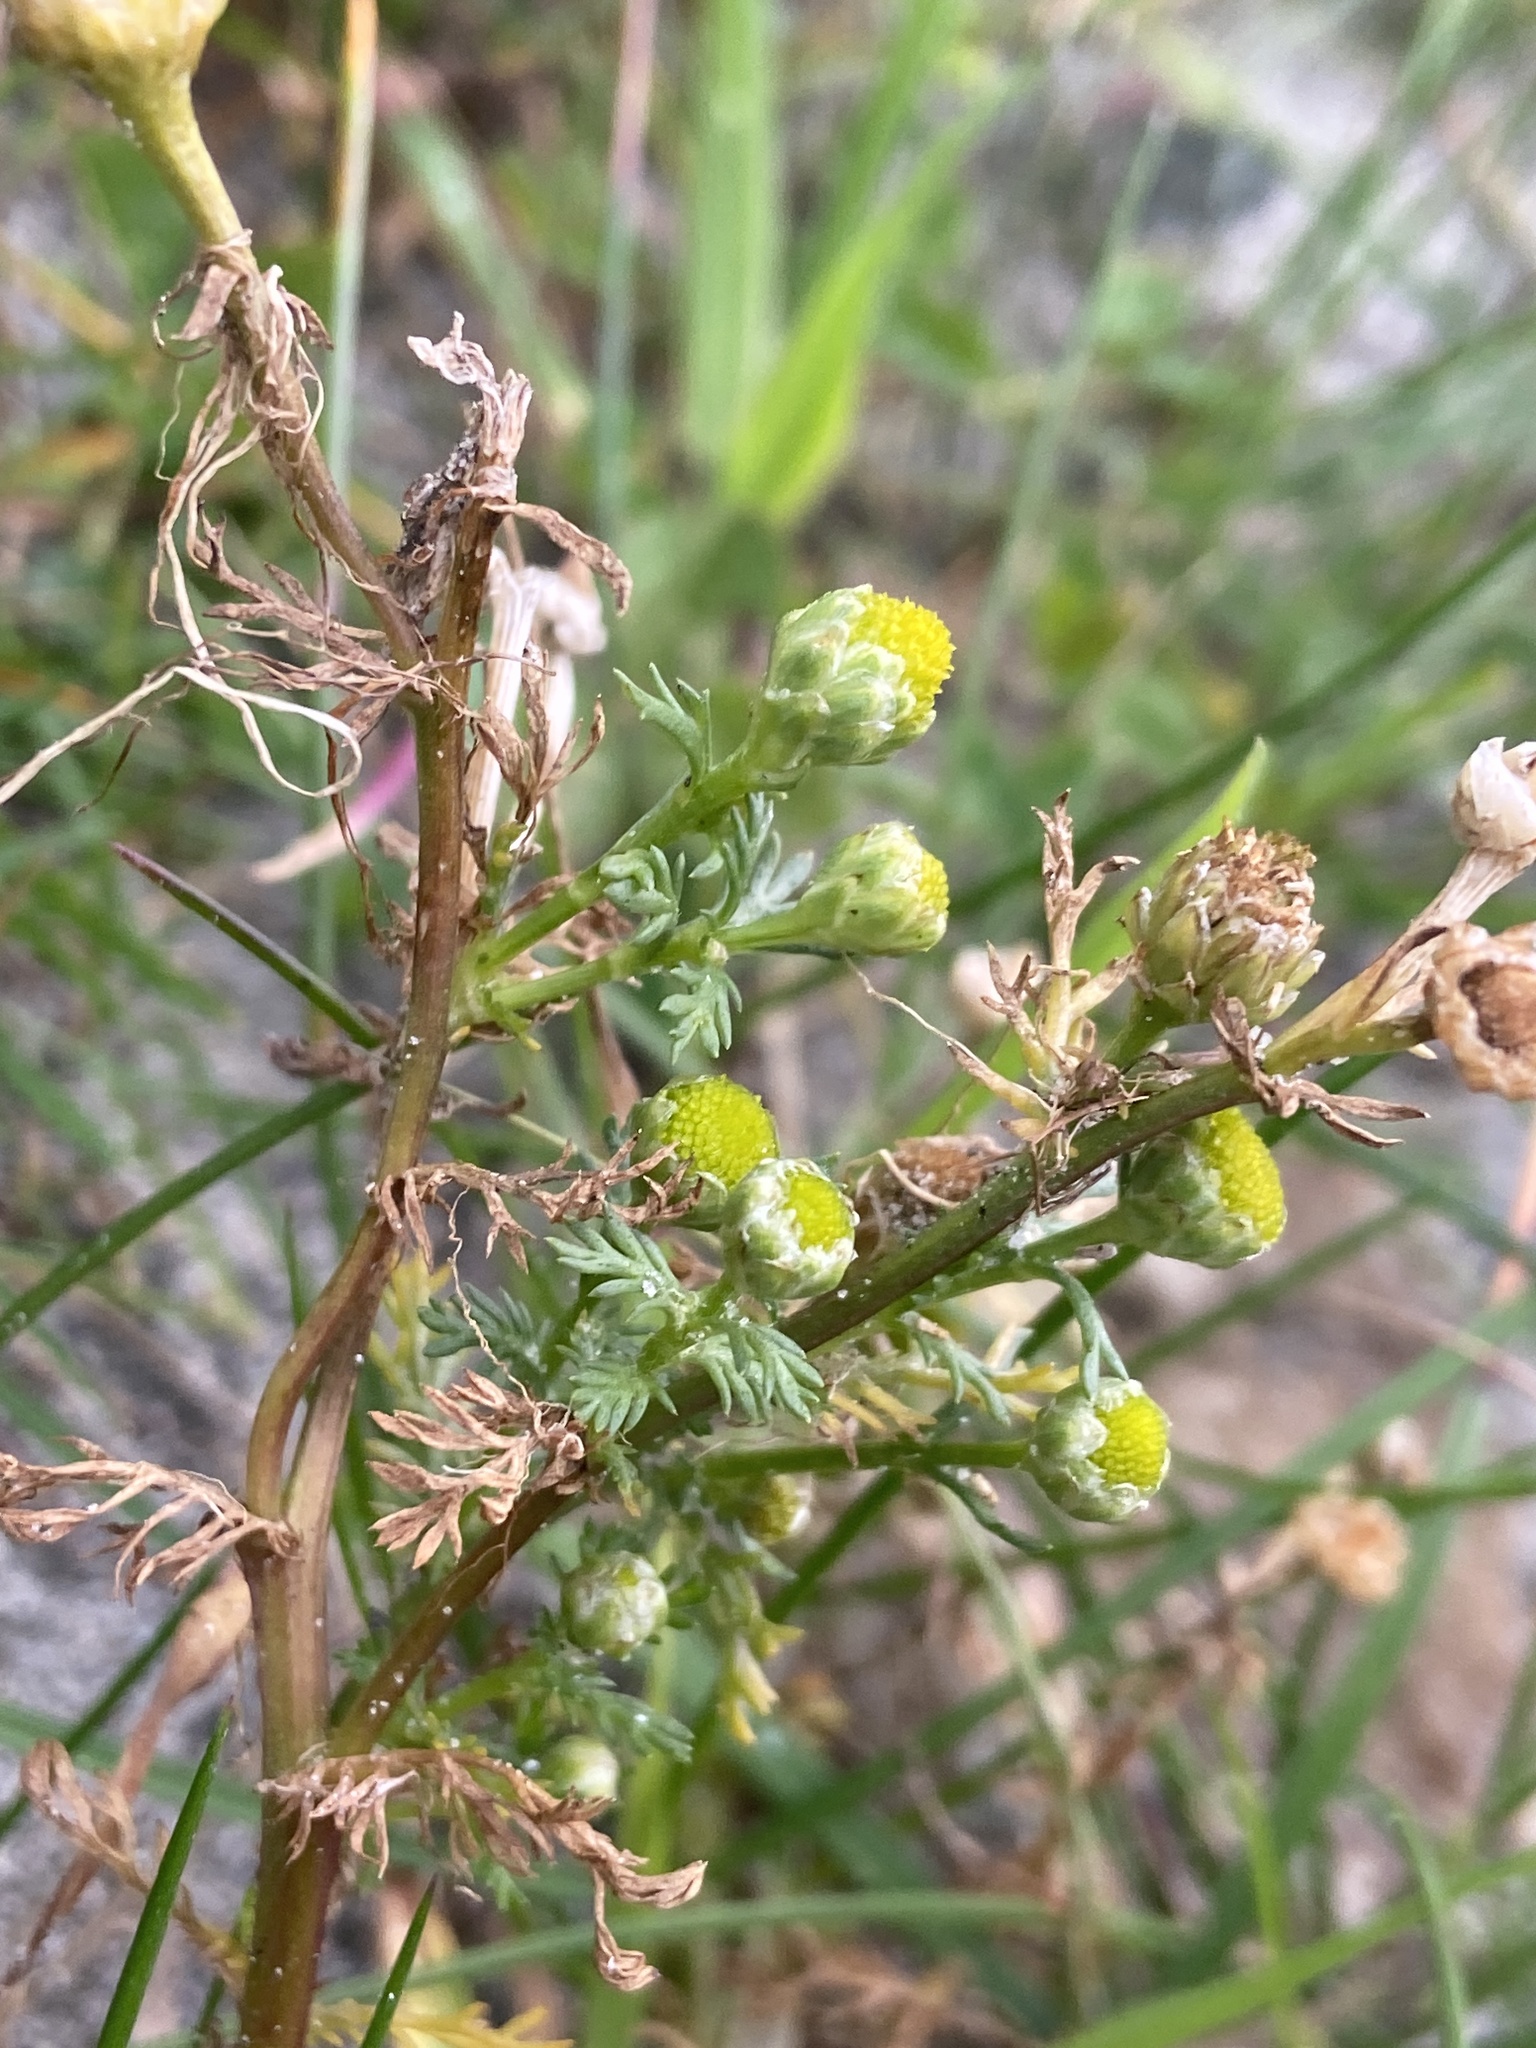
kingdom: Plantae
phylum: Tracheophyta
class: Magnoliopsida
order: Asterales
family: Asteraceae
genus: Matricaria
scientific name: Matricaria discoidea
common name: Disc mayweed
